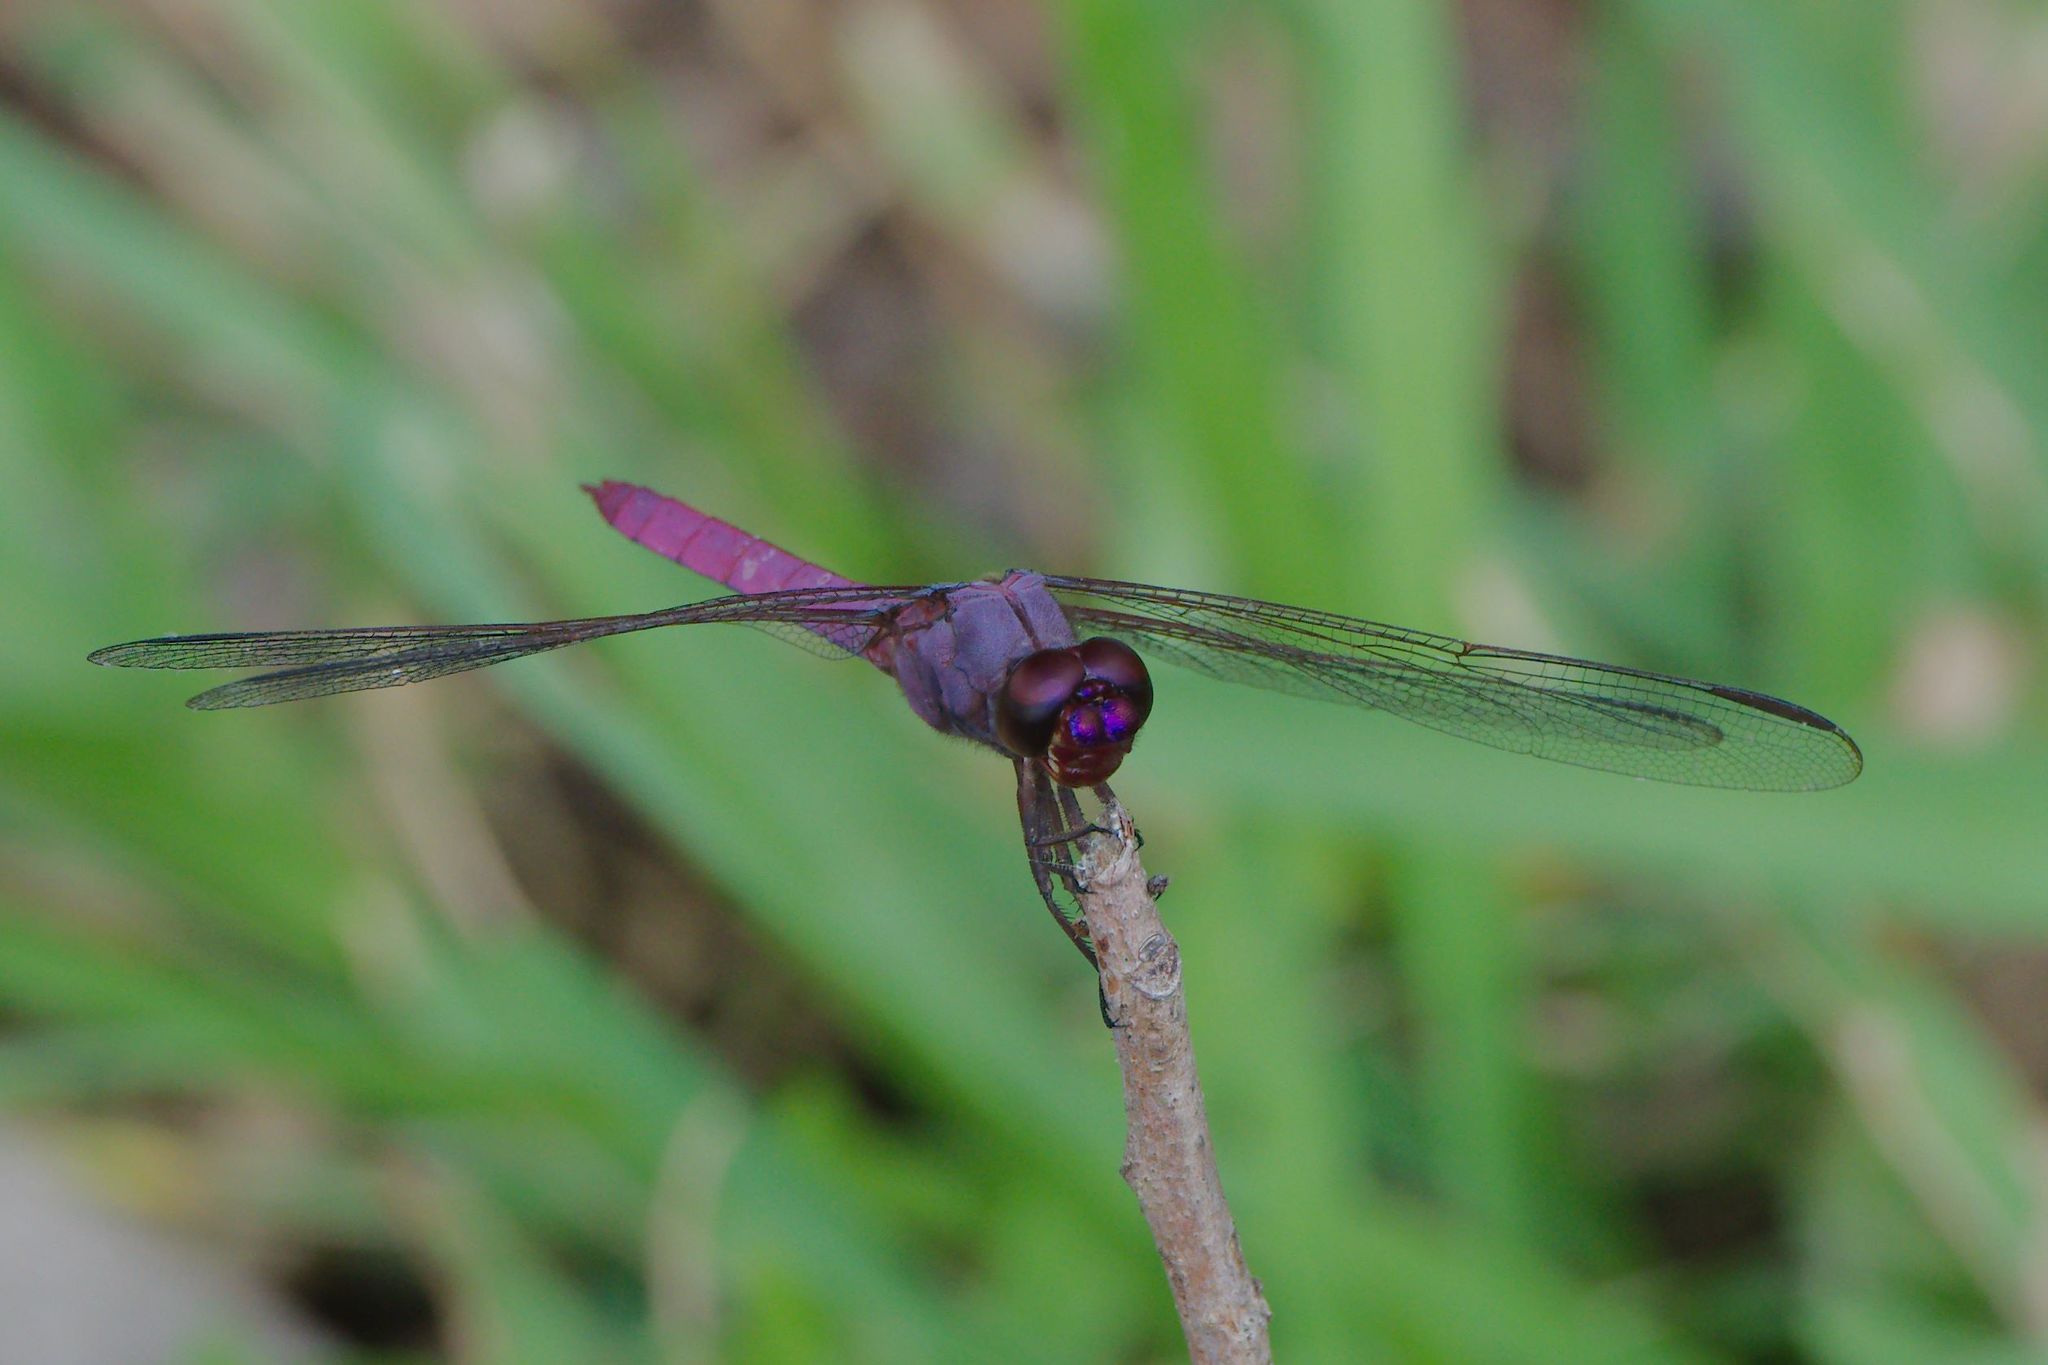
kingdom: Animalia
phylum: Arthropoda
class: Insecta
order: Odonata
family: Libellulidae
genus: Orthemis
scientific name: Orthemis ferruginea
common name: Roseate skimmer
